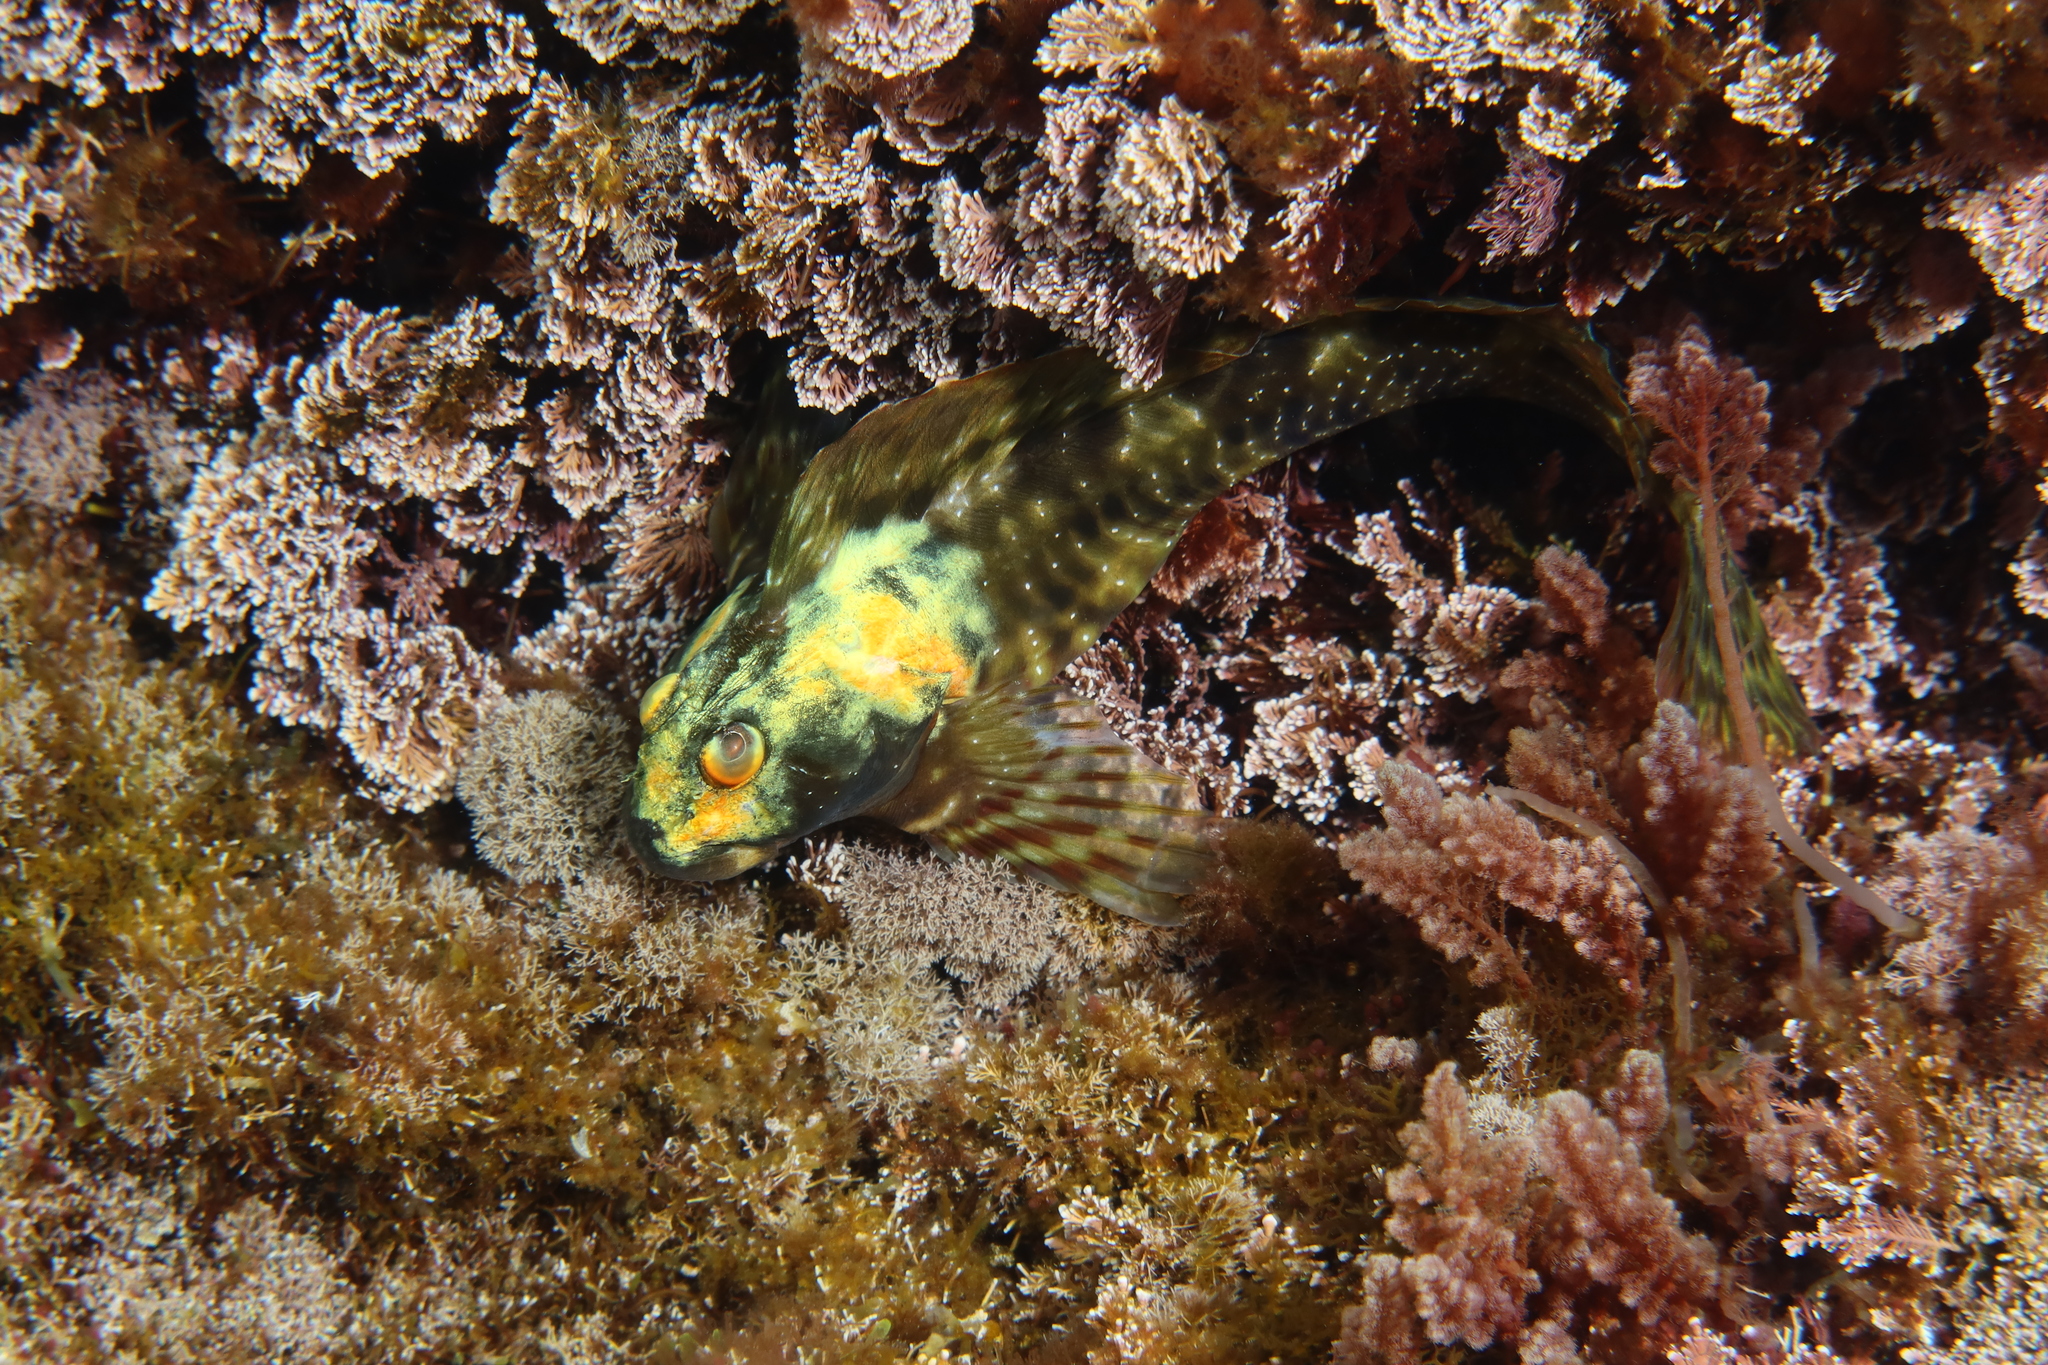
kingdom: Animalia
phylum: Chordata
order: Perciformes
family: Blenniidae
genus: Scartella
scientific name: Scartella cristata
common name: Molly miller
